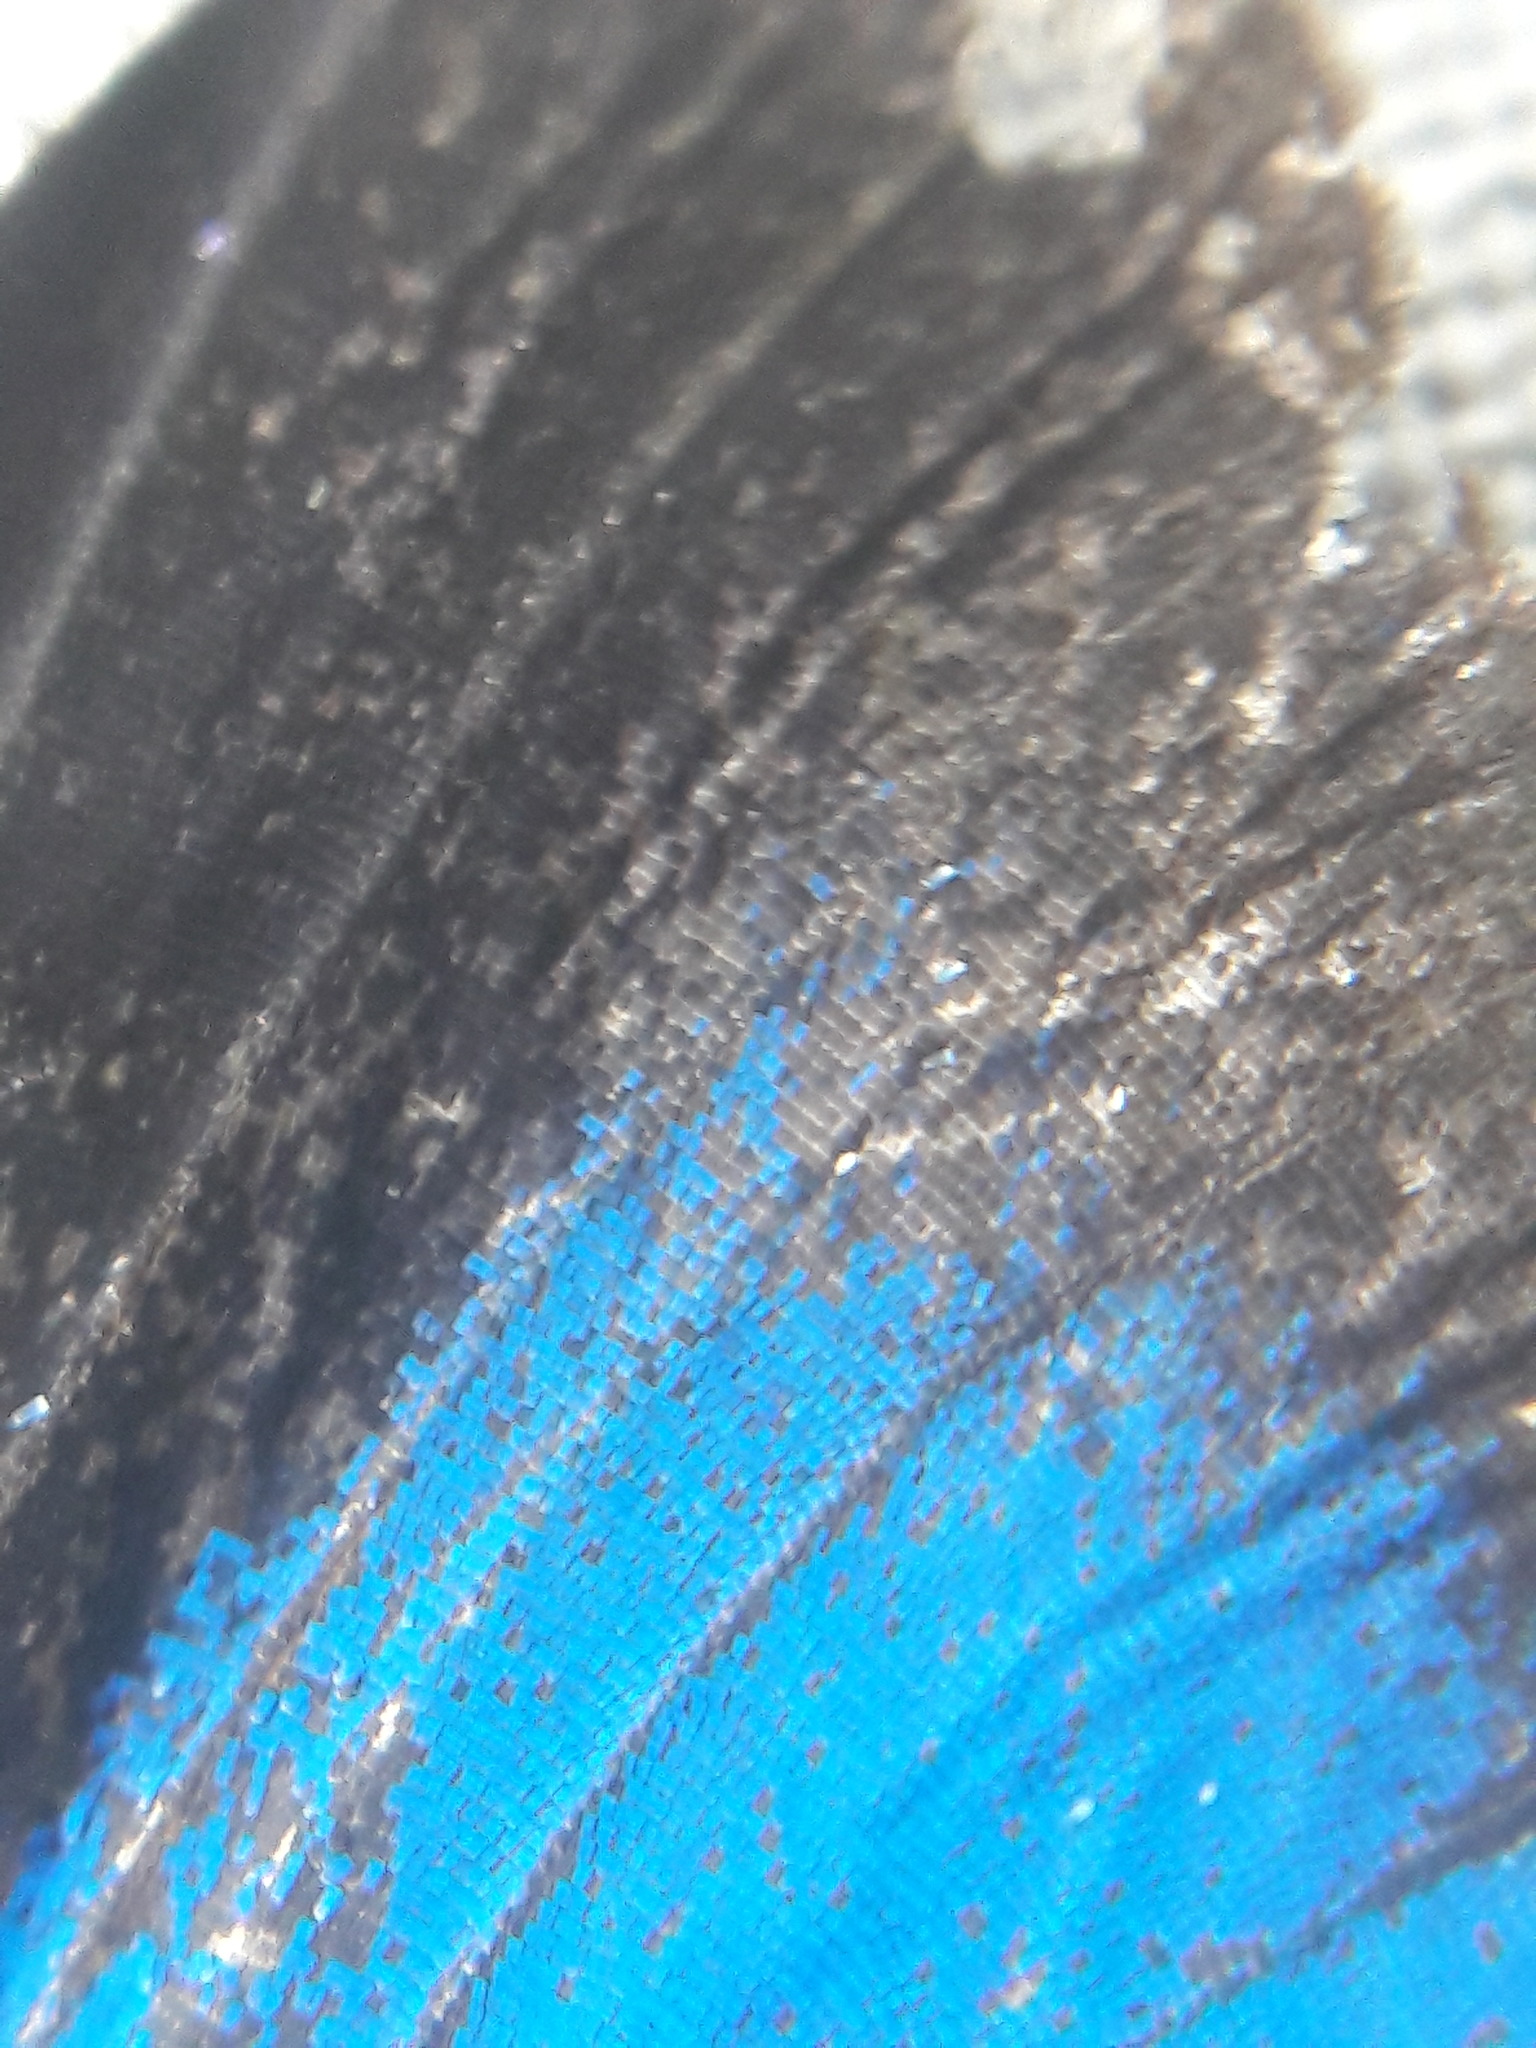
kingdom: Animalia
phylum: Arthropoda
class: Insecta
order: Lepidoptera
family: Lycaenidae
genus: Pseudolycaena
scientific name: Pseudolycaena marsyas
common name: Marsyas hairstreak
